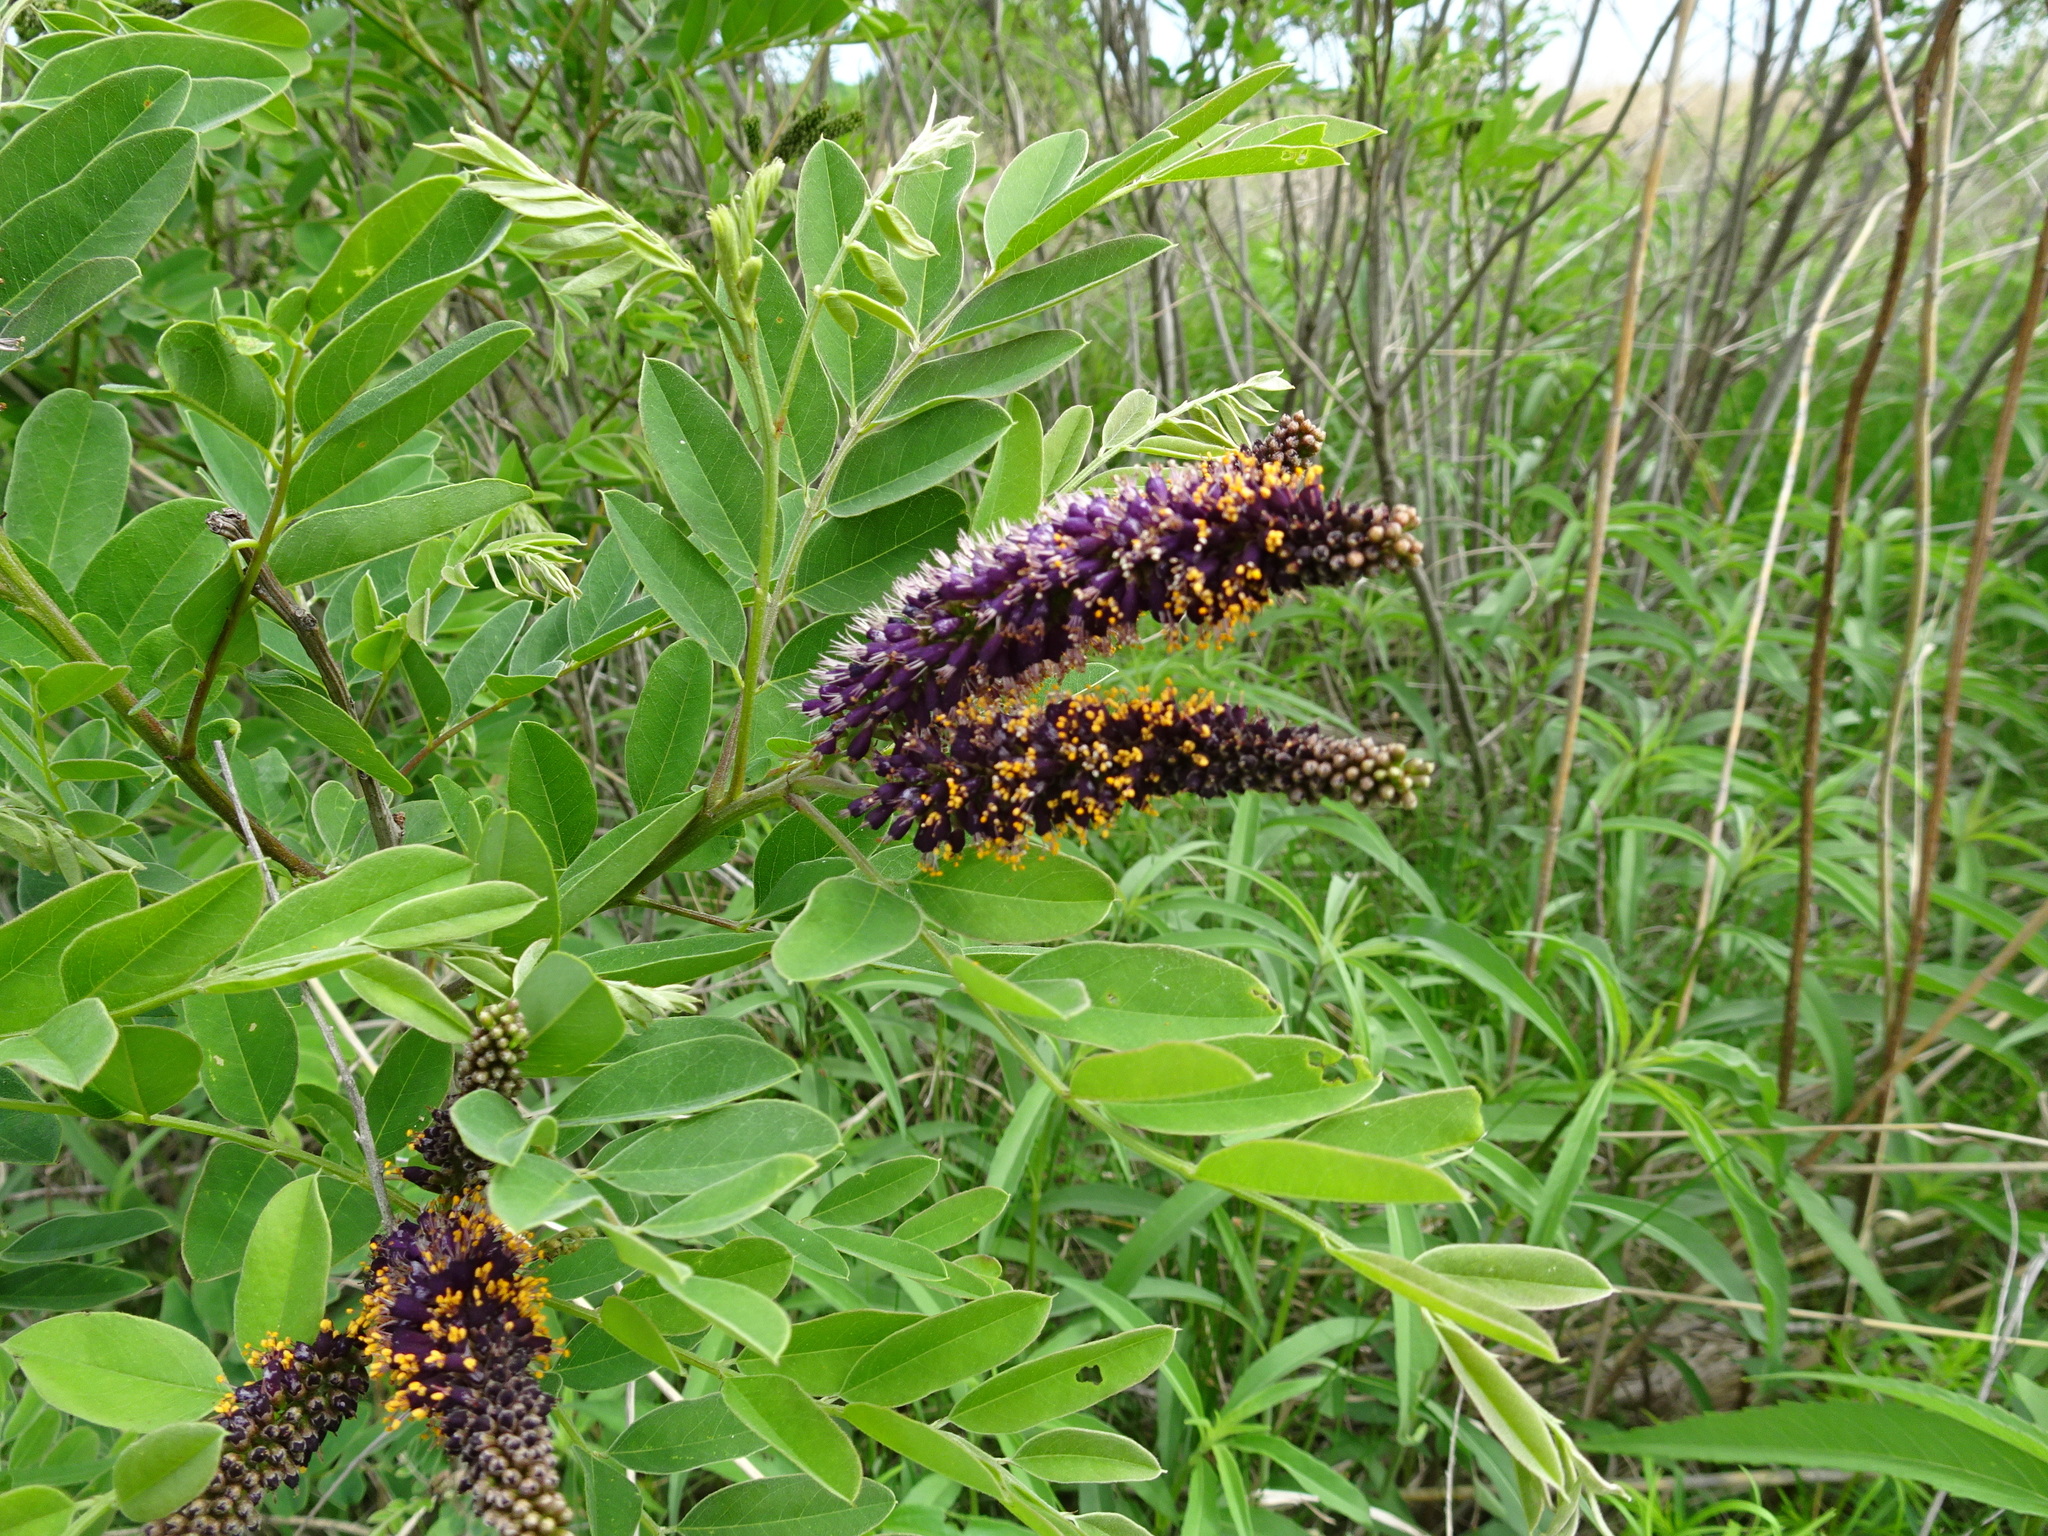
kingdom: Plantae
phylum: Tracheophyta
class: Magnoliopsida
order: Fabales
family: Fabaceae
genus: Amorpha
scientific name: Amorpha fruticosa
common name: False indigo
